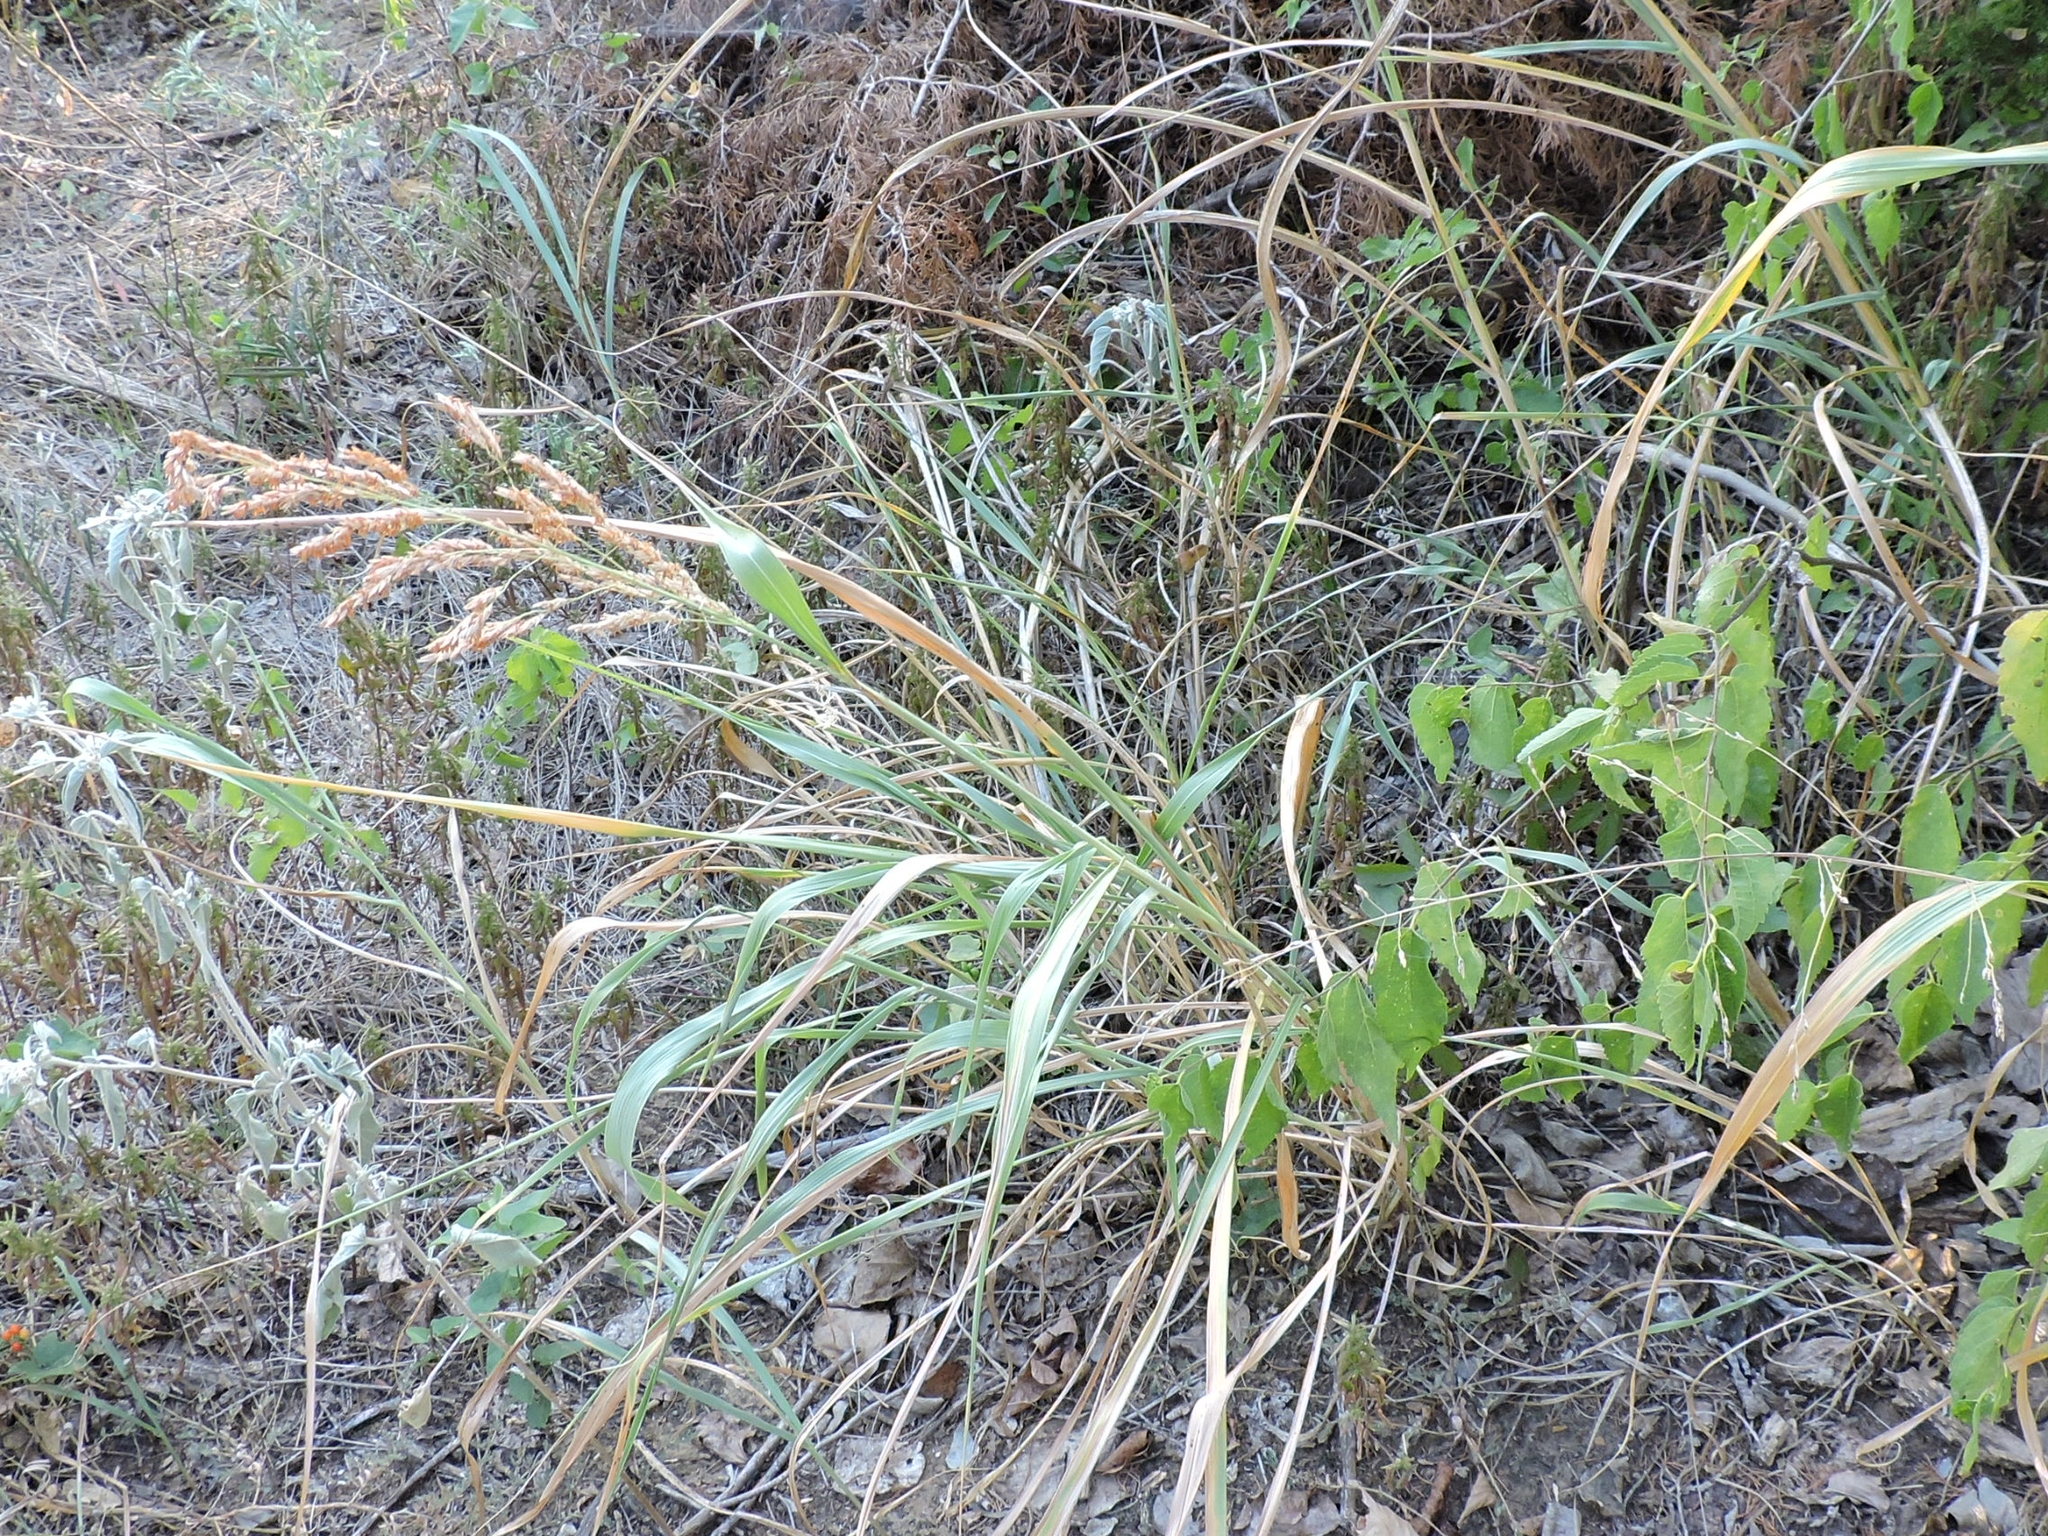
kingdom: Plantae
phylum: Tracheophyta
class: Liliopsida
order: Poales
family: Poaceae
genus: Sorghum
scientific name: Sorghum halepense
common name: Johnson-grass
